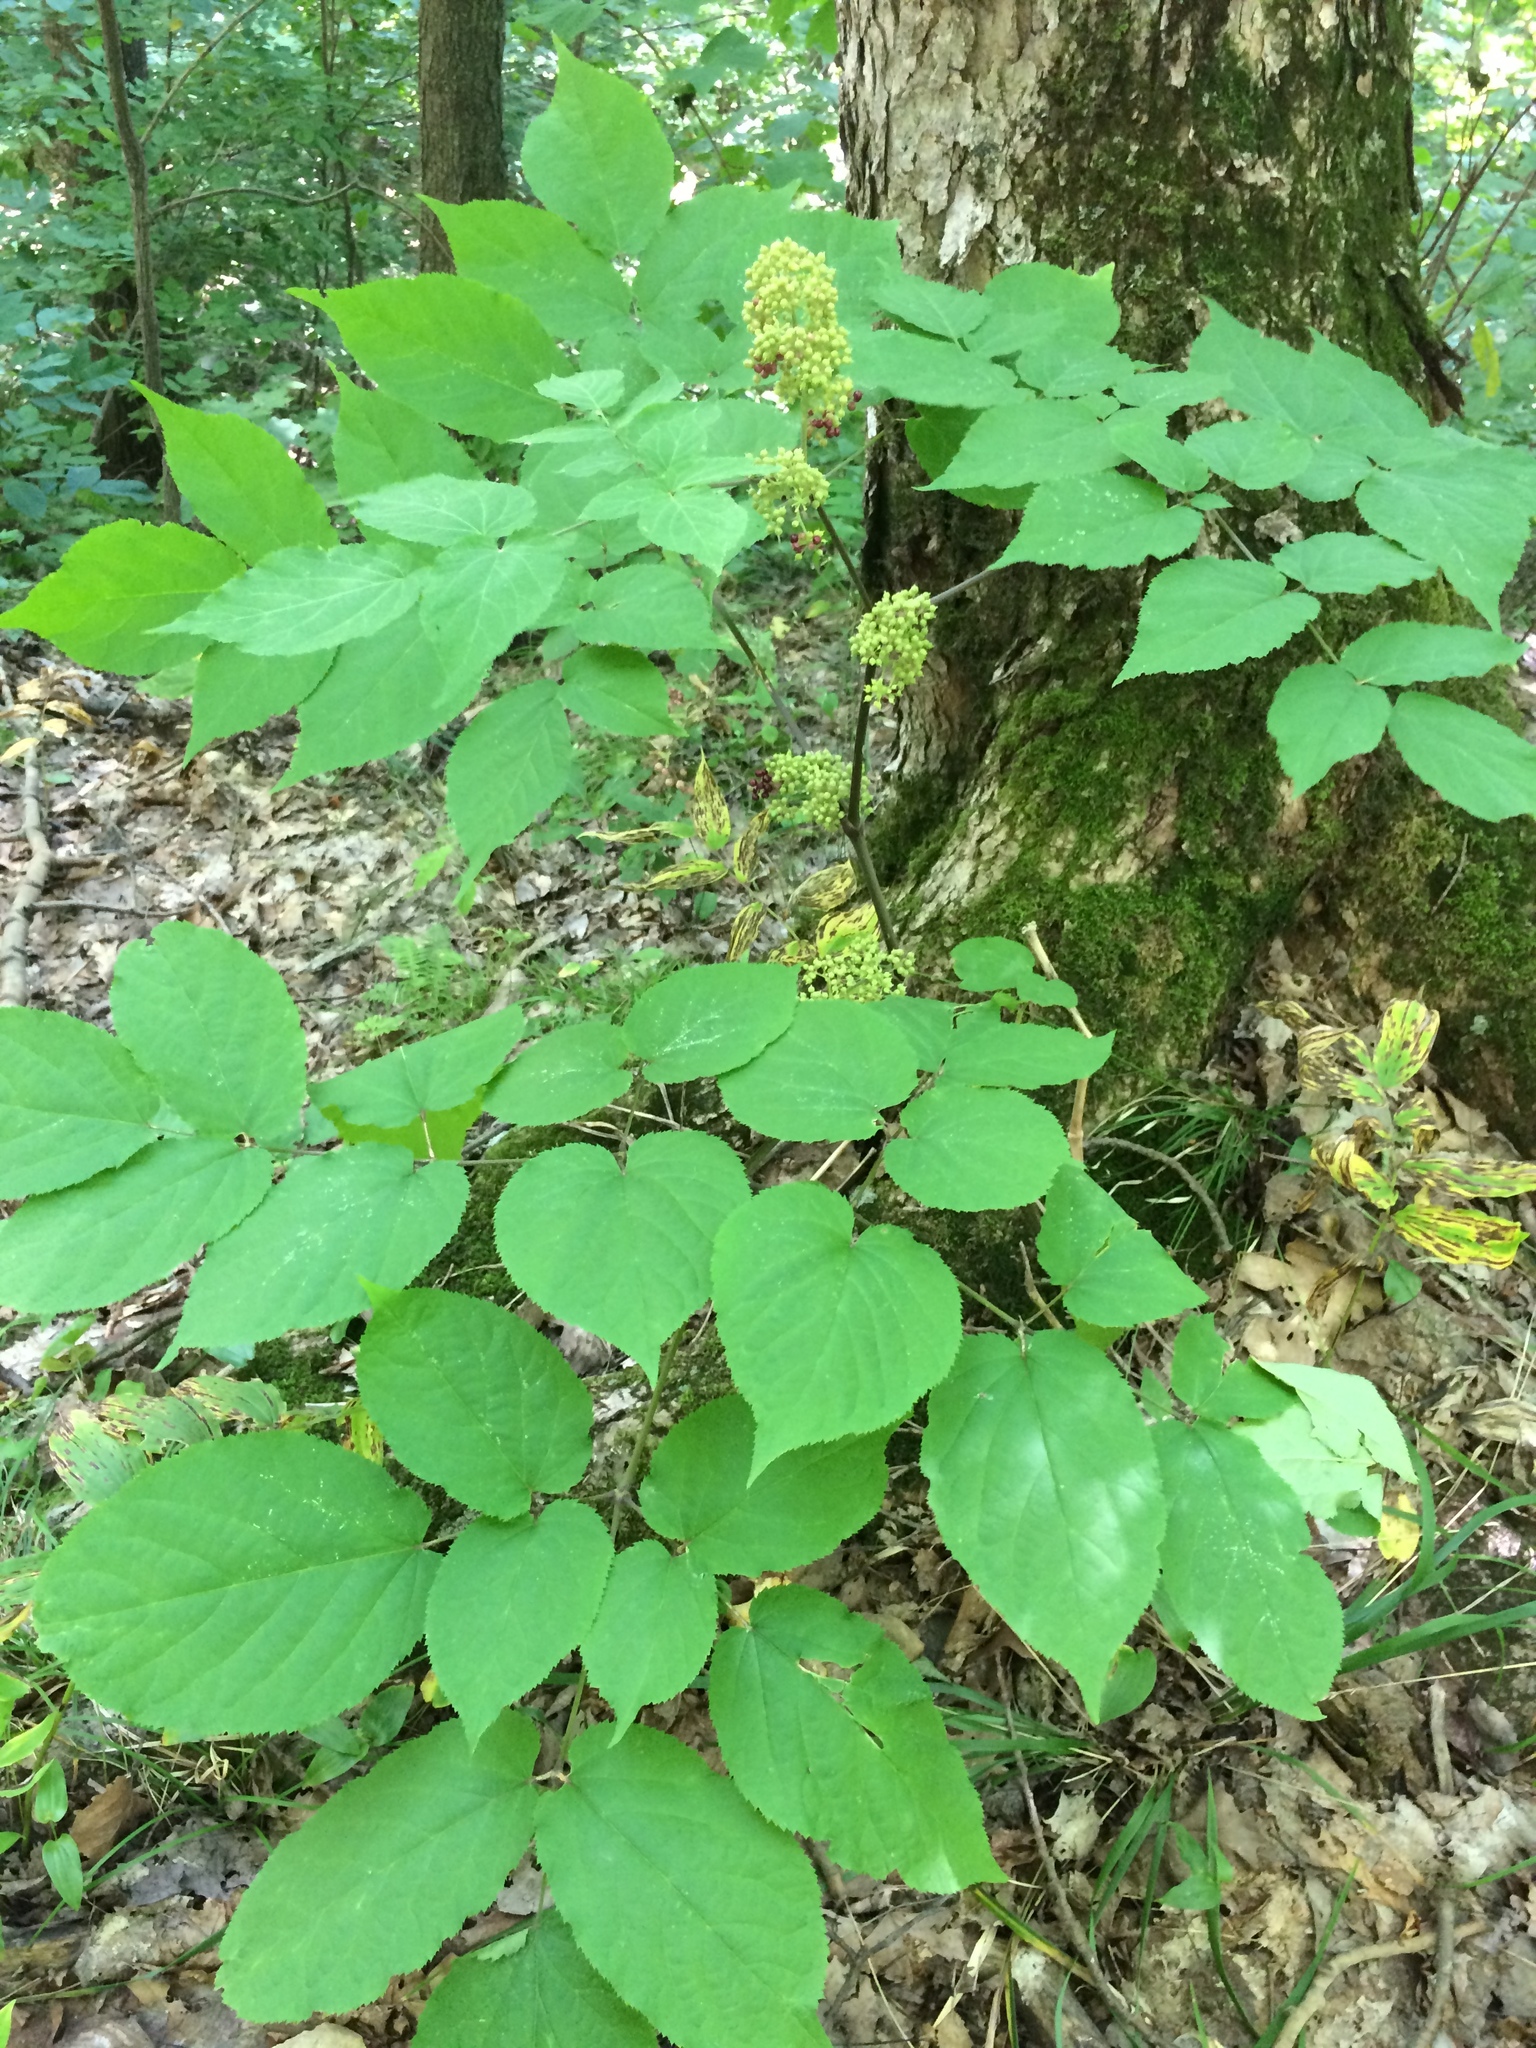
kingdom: Plantae
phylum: Tracheophyta
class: Magnoliopsida
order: Apiales
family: Araliaceae
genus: Aralia
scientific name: Aralia racemosa
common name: American-spikenard
